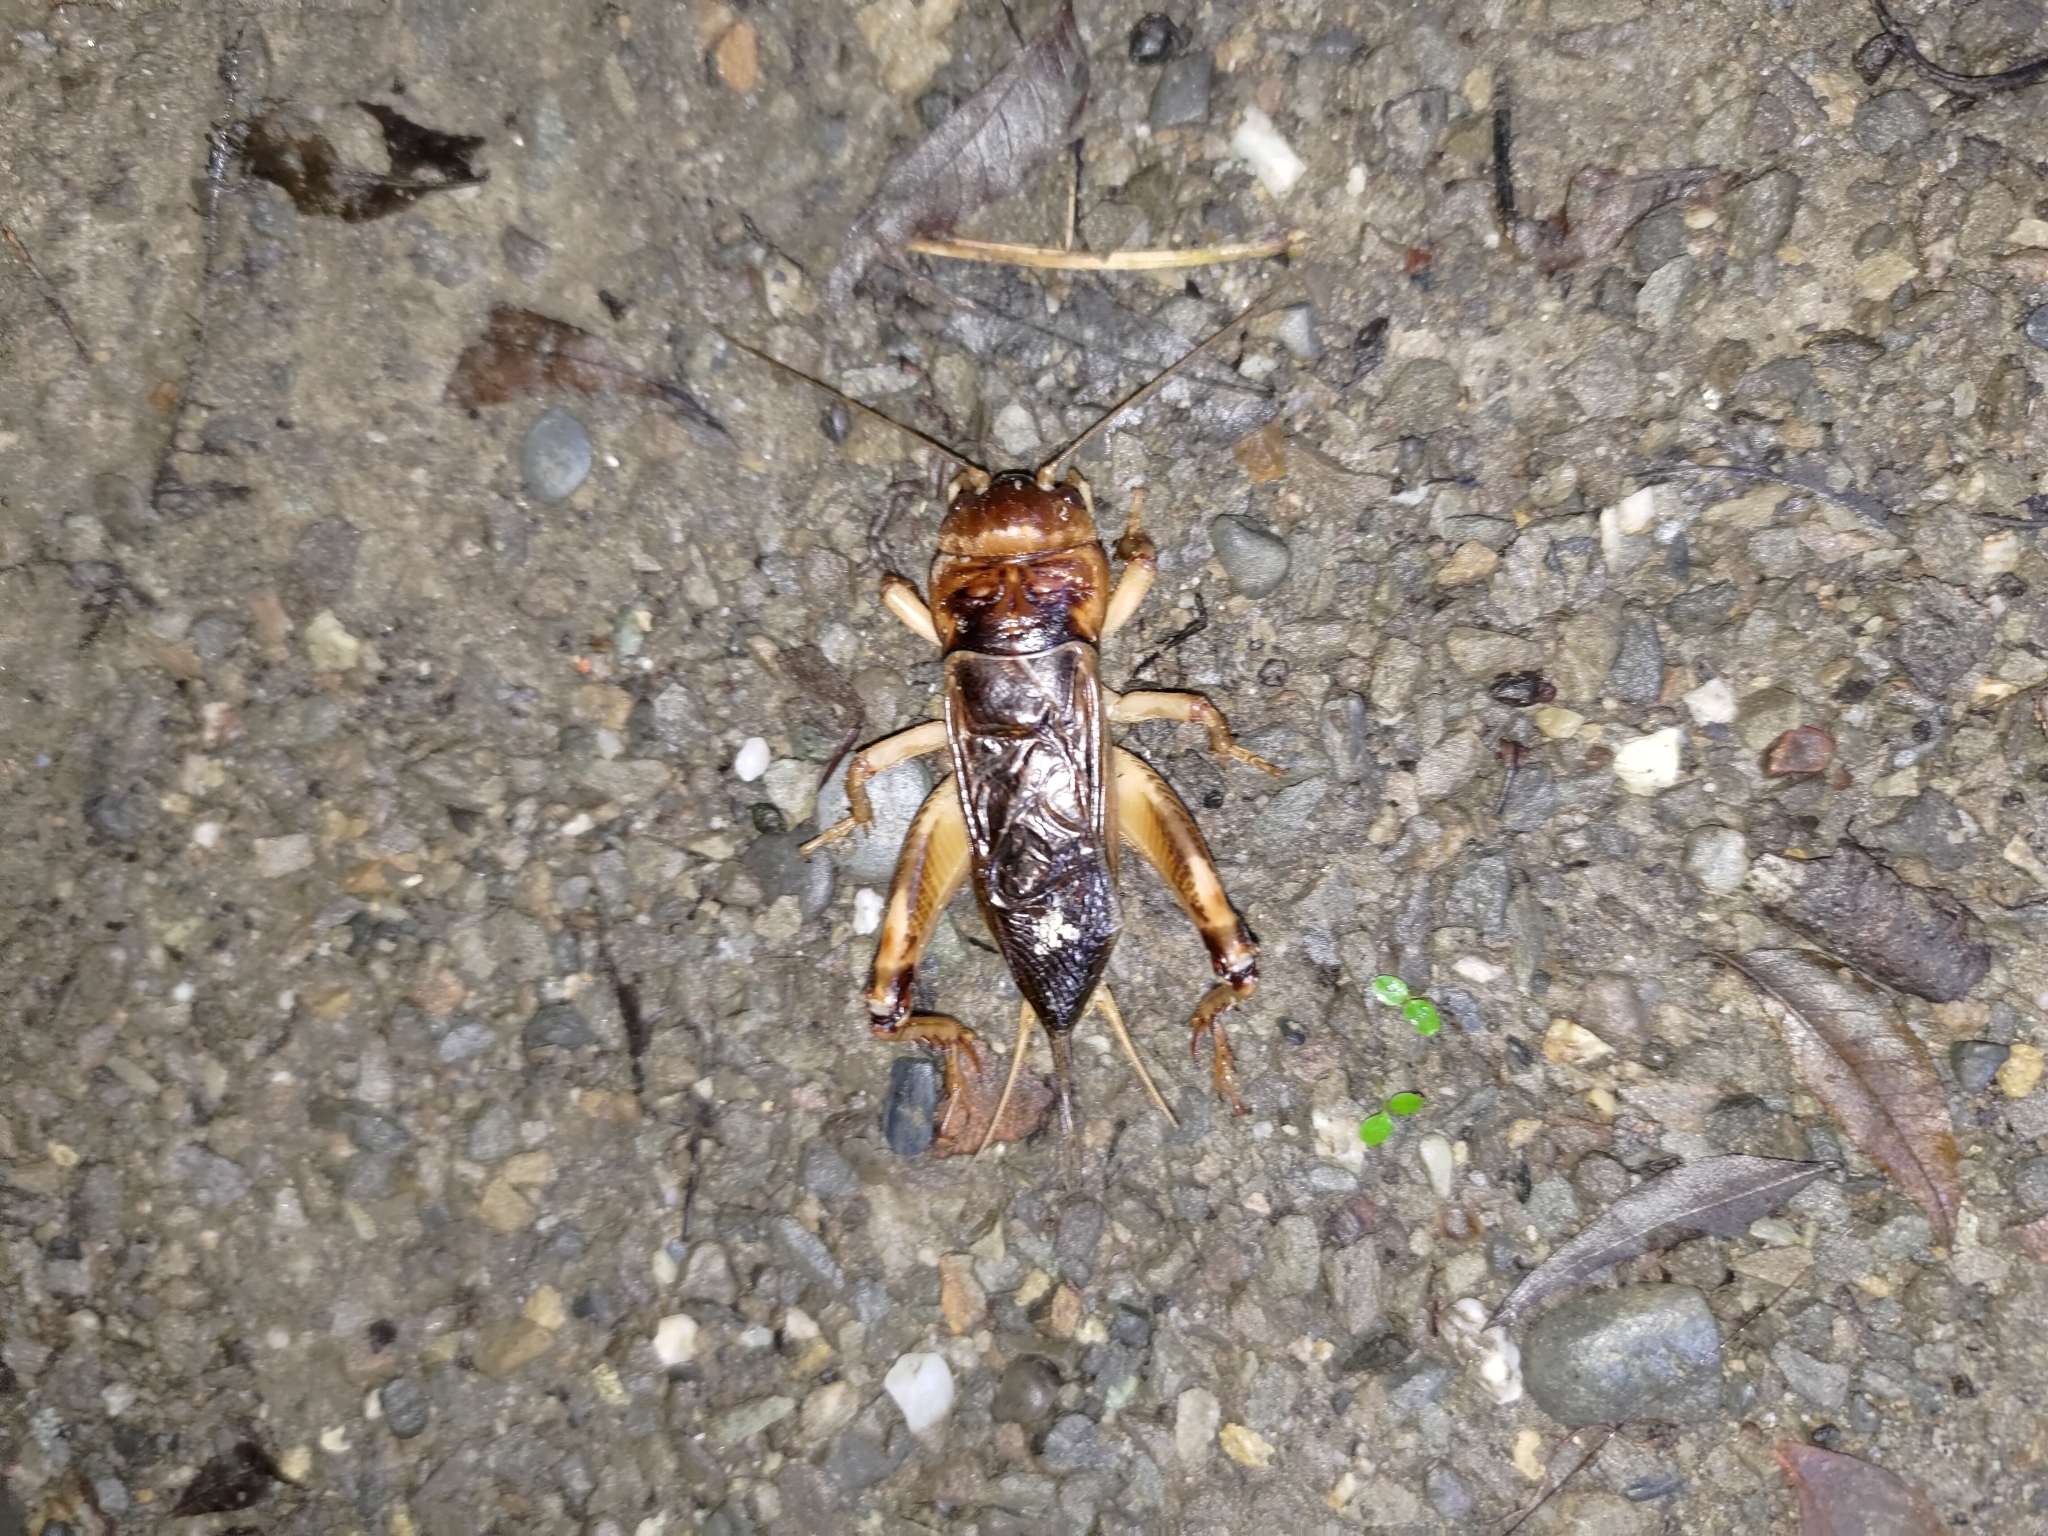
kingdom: Animalia
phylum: Arthropoda
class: Insecta
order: Orthoptera
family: Gryllidae
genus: Tarbinskiellus
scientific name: Tarbinskiellus portentosus
